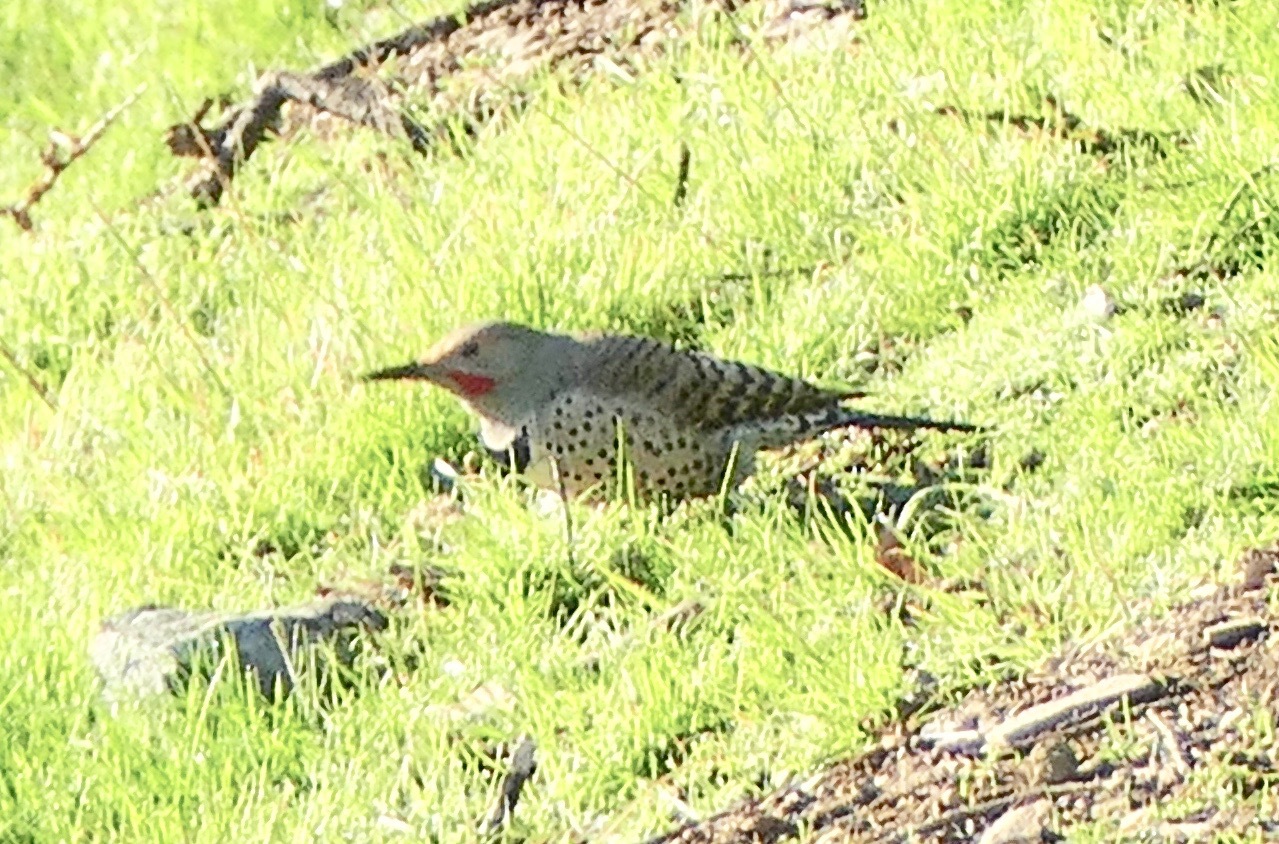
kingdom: Animalia
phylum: Chordata
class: Aves
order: Piciformes
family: Picidae
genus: Colaptes
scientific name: Colaptes auratus
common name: Northern flicker
